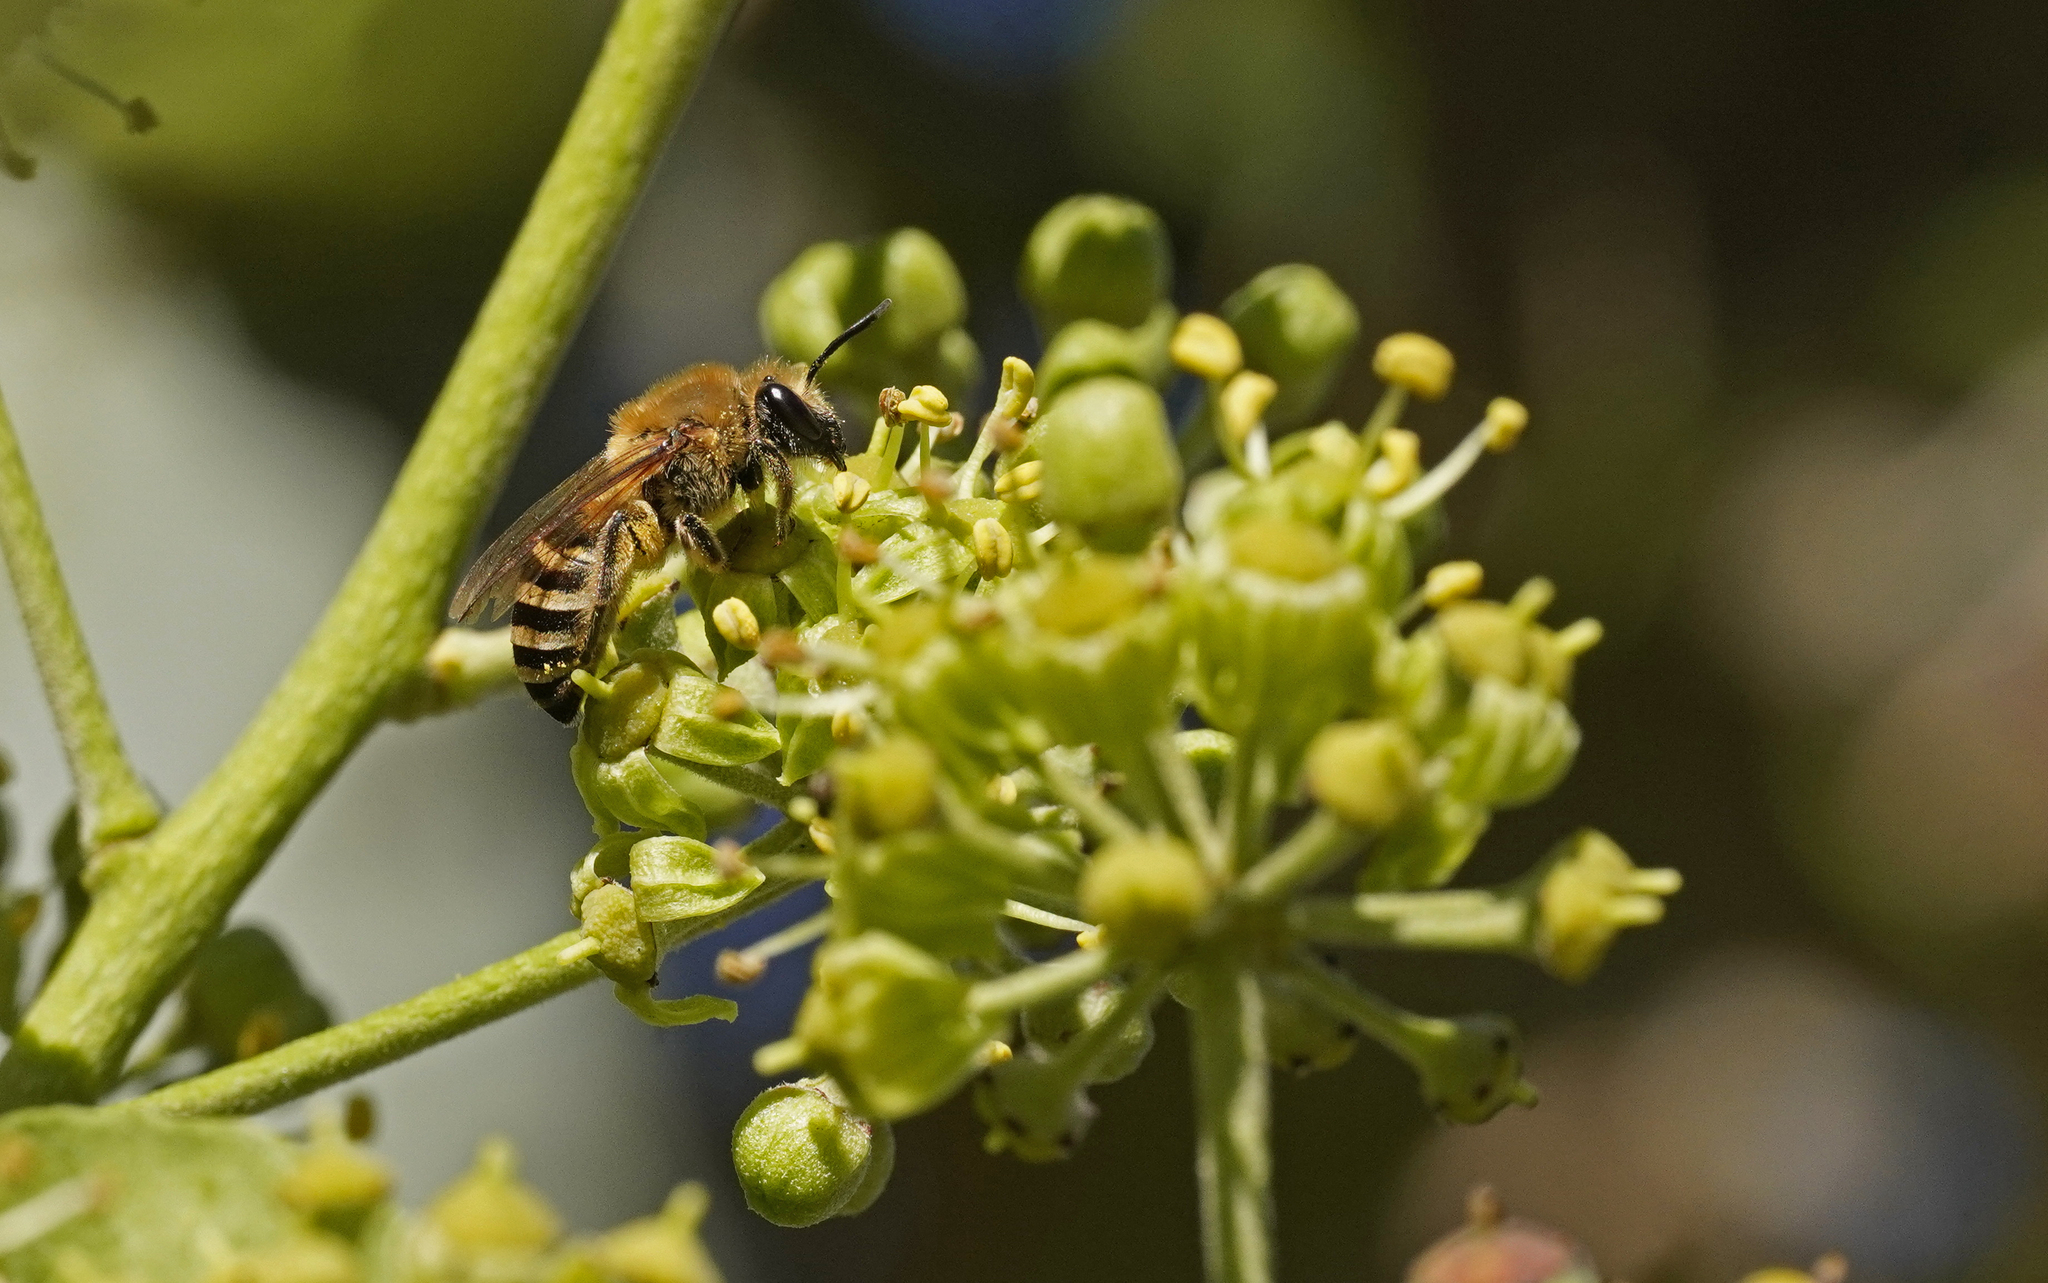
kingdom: Animalia
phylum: Arthropoda
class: Insecta
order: Hymenoptera
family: Colletidae
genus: Colletes
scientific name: Colletes hederae
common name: Ivy bee
